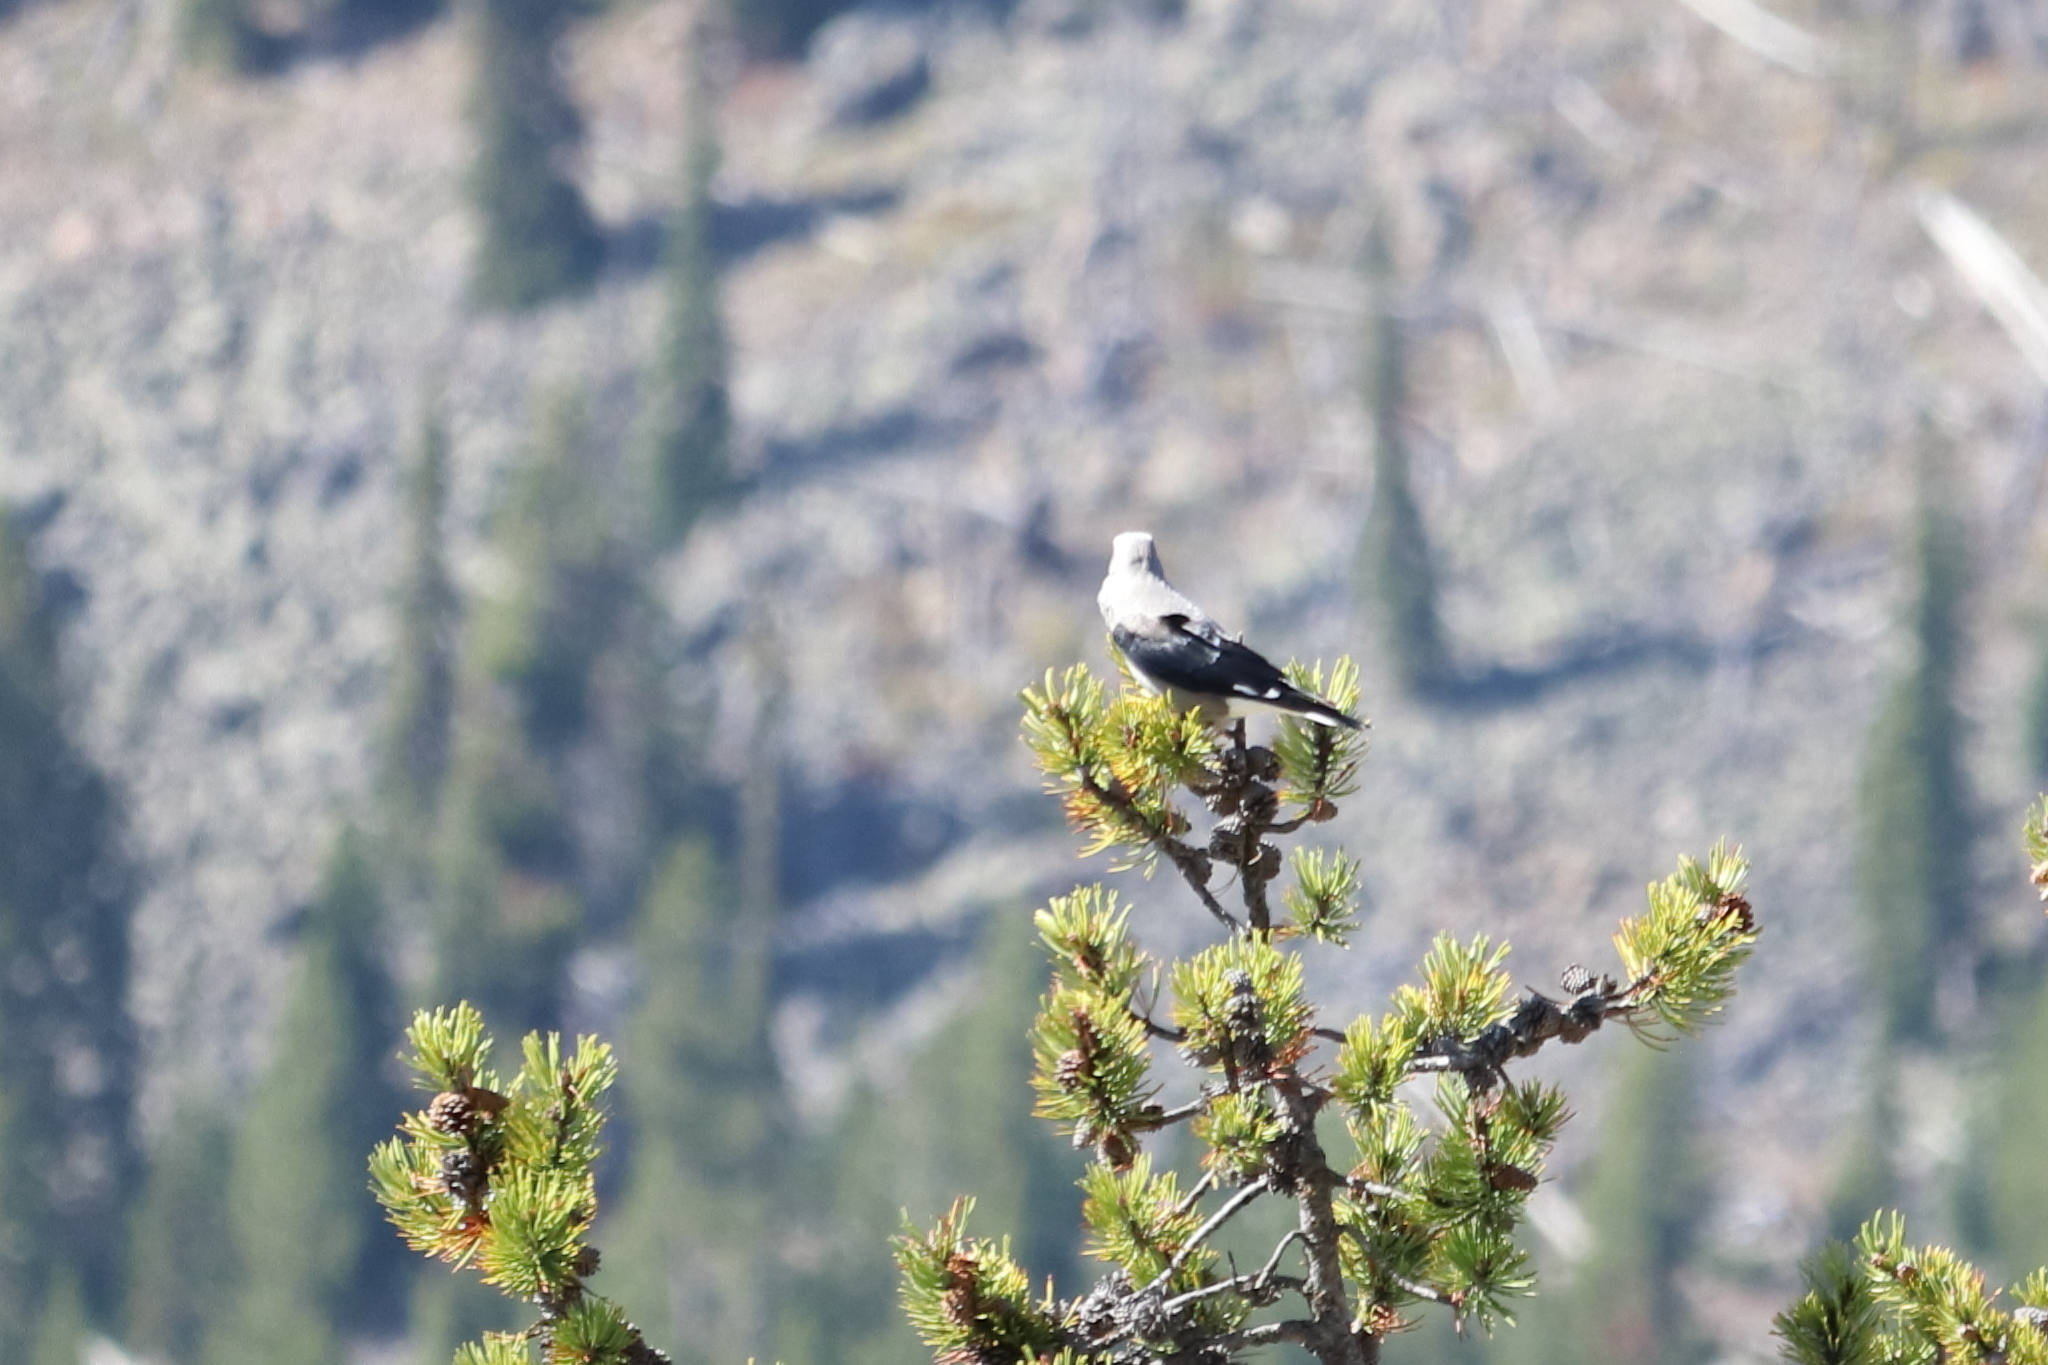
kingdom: Animalia
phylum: Chordata
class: Aves
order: Passeriformes
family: Corvidae
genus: Nucifraga
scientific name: Nucifraga columbiana
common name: Clark's nutcracker
